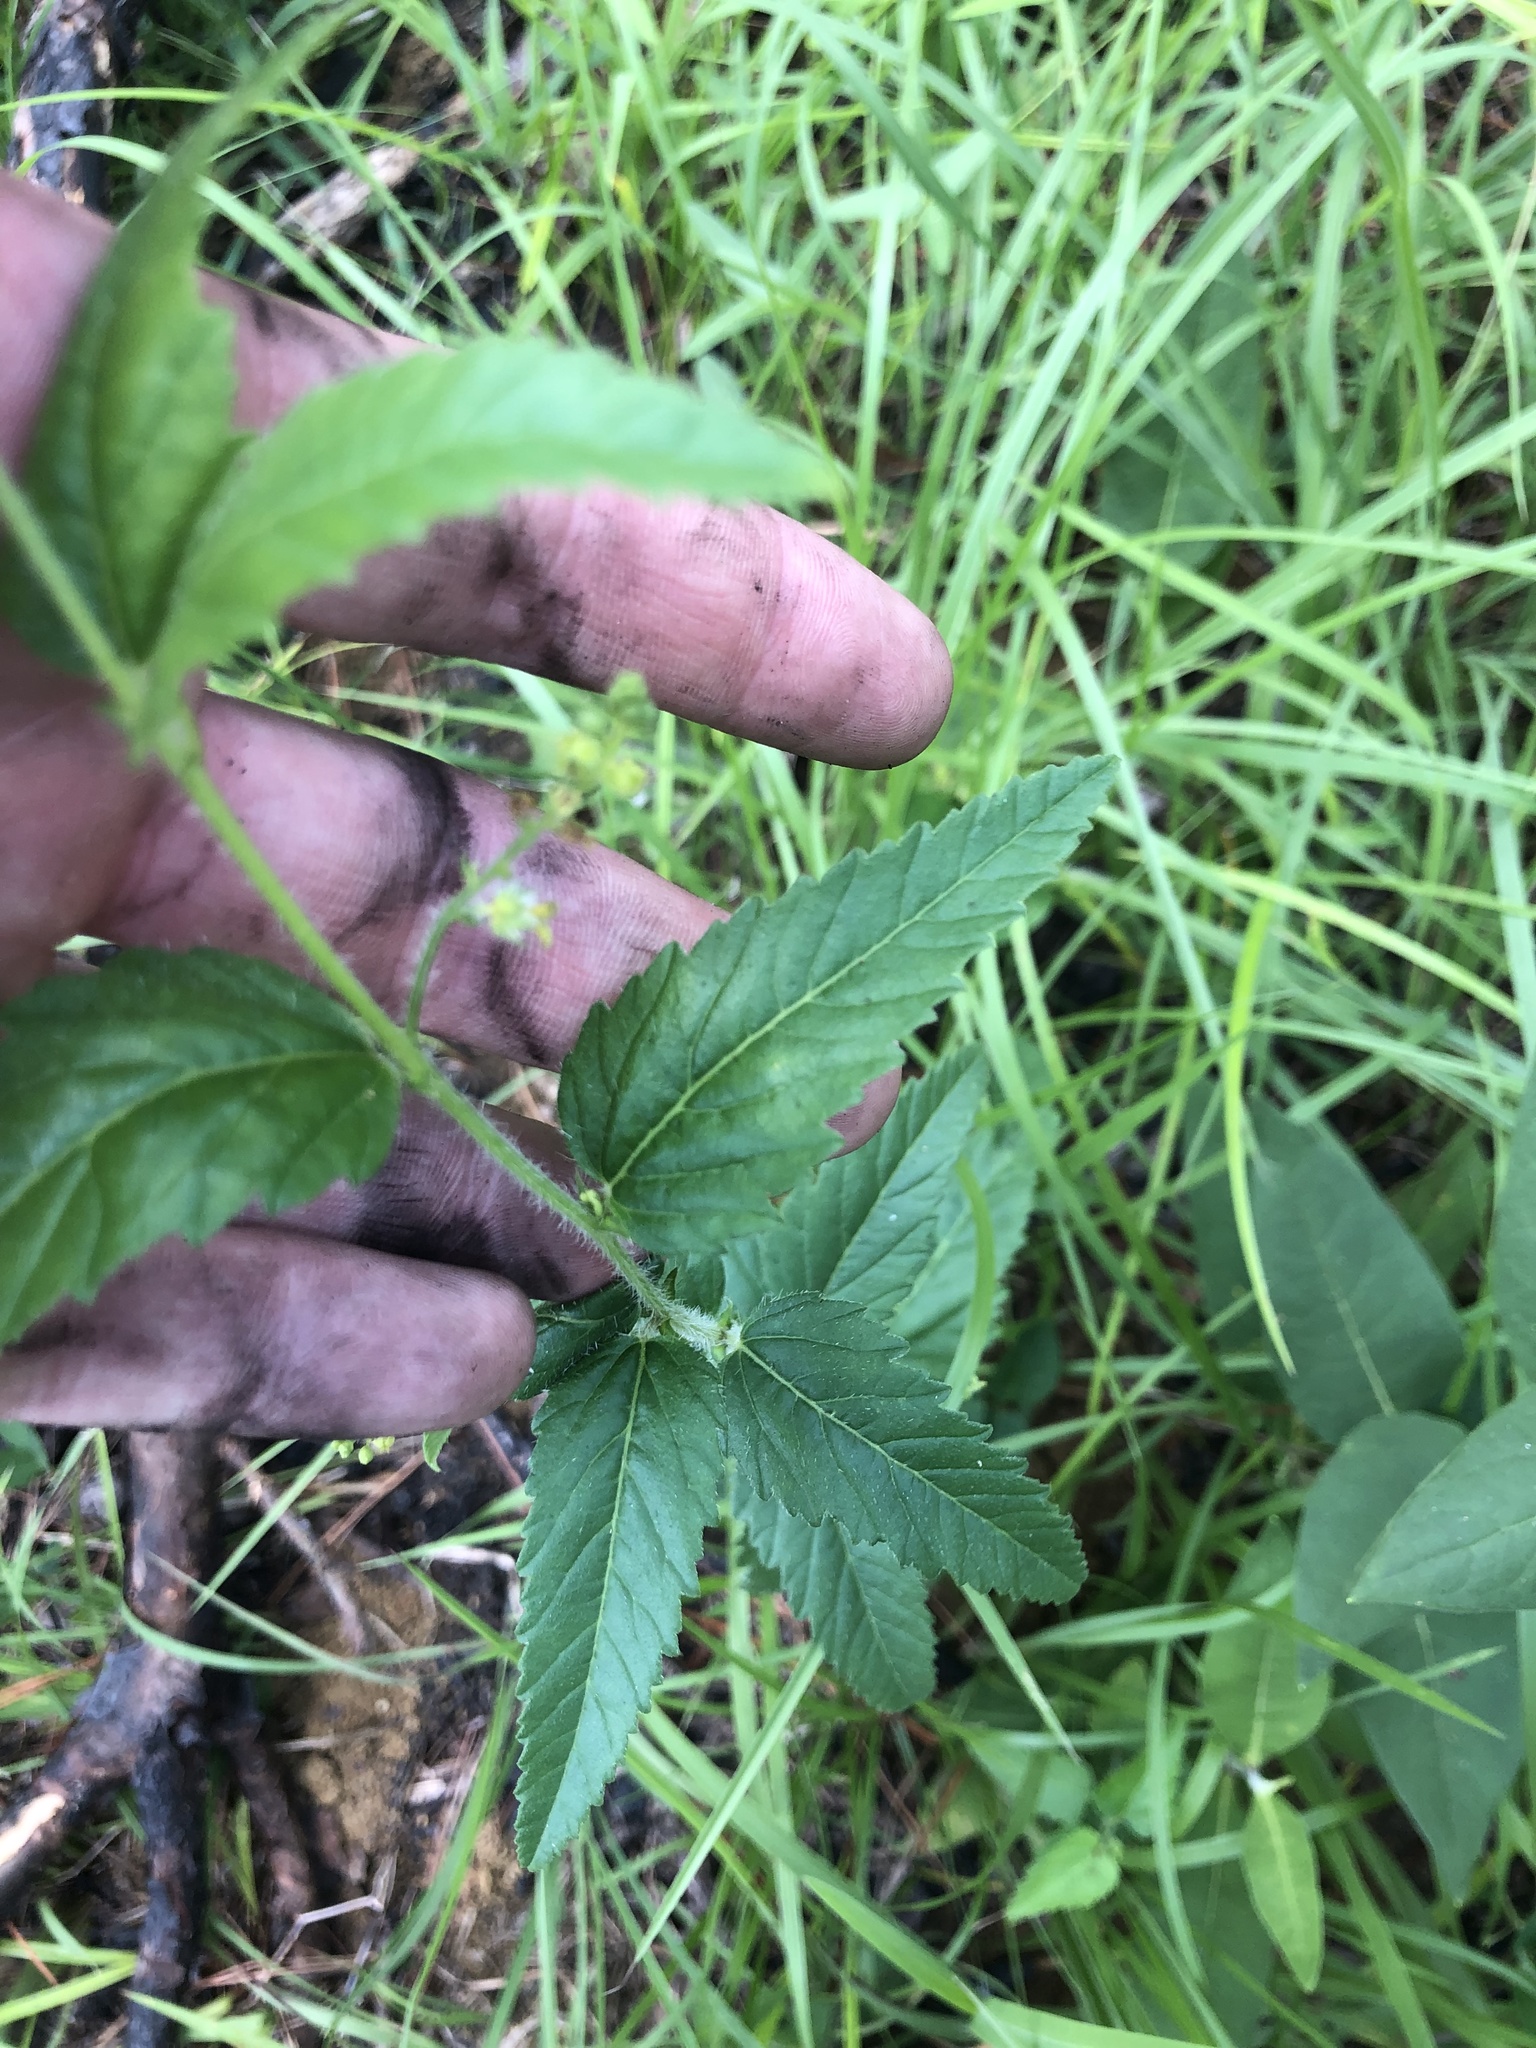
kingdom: Plantae
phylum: Tracheophyta
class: Magnoliopsida
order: Malpighiales
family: Euphorbiaceae
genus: Tragia
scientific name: Tragia urticifolia
